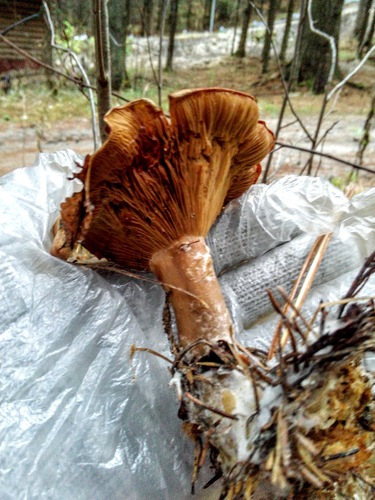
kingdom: Fungi
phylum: Basidiomycota
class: Agaricomycetes
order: Agaricales
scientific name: Agaricales
